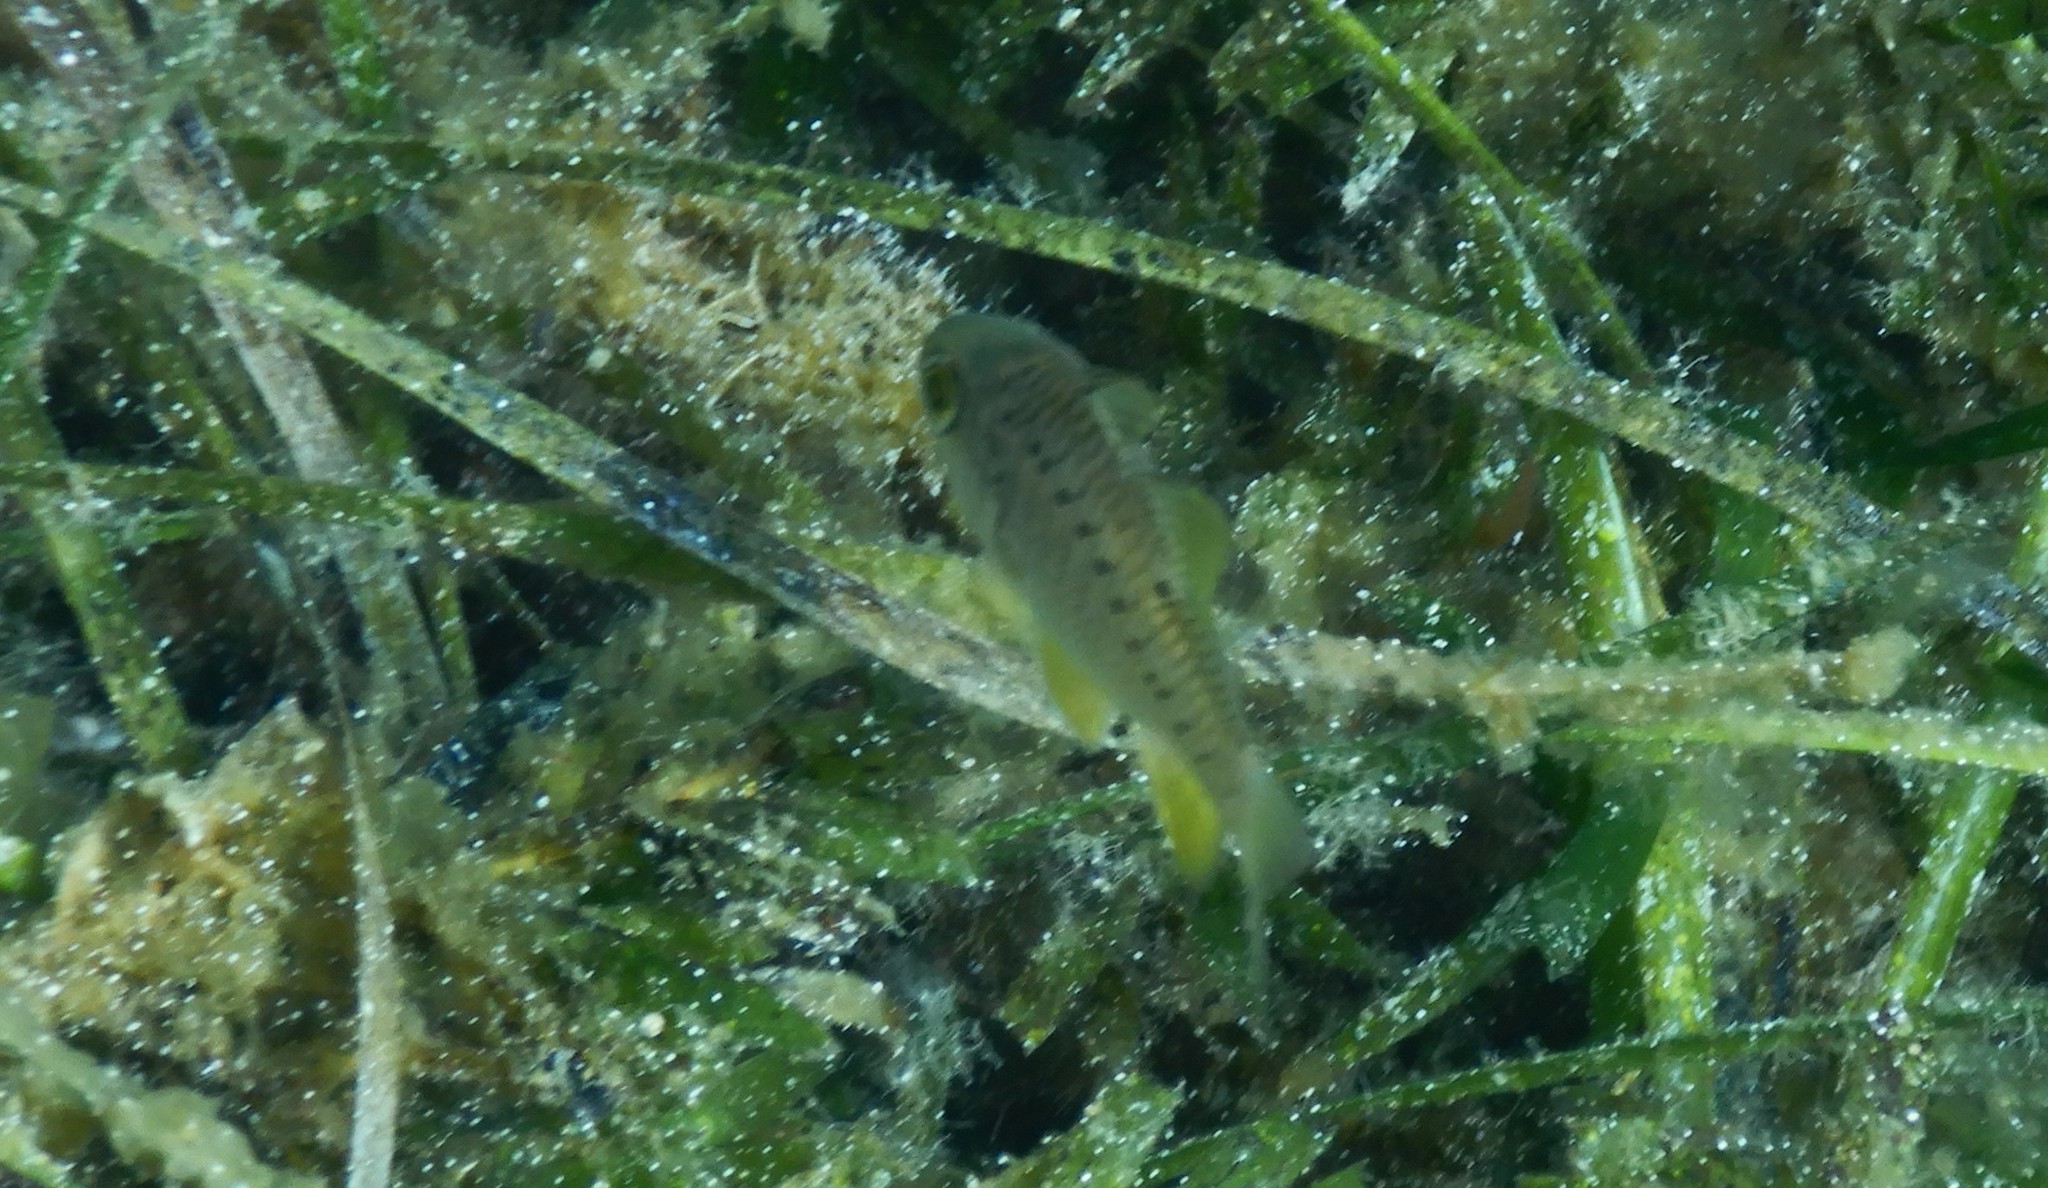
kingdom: Animalia
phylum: Chordata
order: Perciformes
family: Apogonidae
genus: Ostorhinchus
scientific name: Ostorhinchus rueppellii
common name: Gobbleguts
